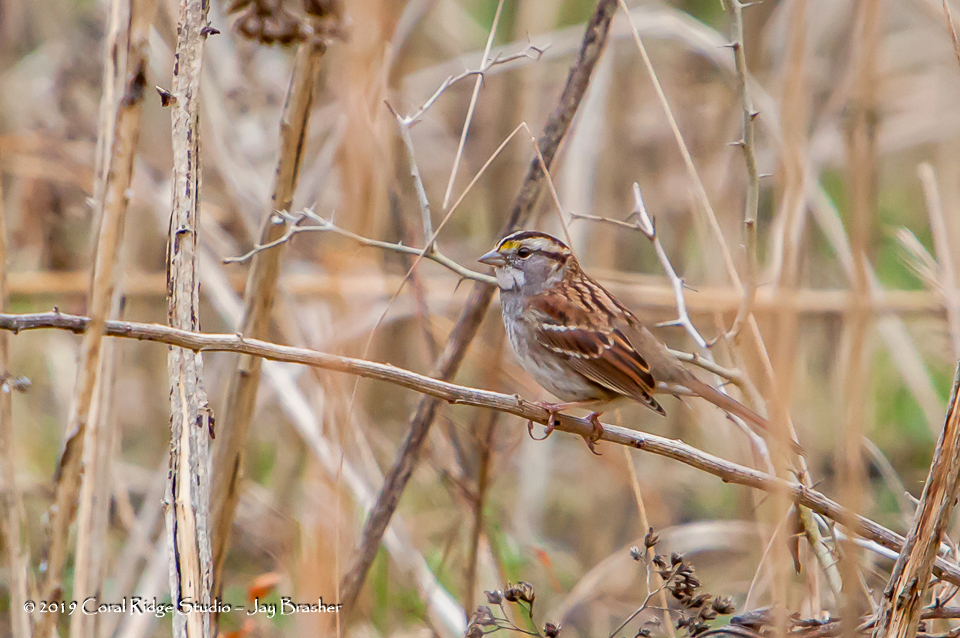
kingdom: Animalia
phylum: Chordata
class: Aves
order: Passeriformes
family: Passerellidae
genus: Zonotrichia
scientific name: Zonotrichia albicollis
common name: White-throated sparrow
